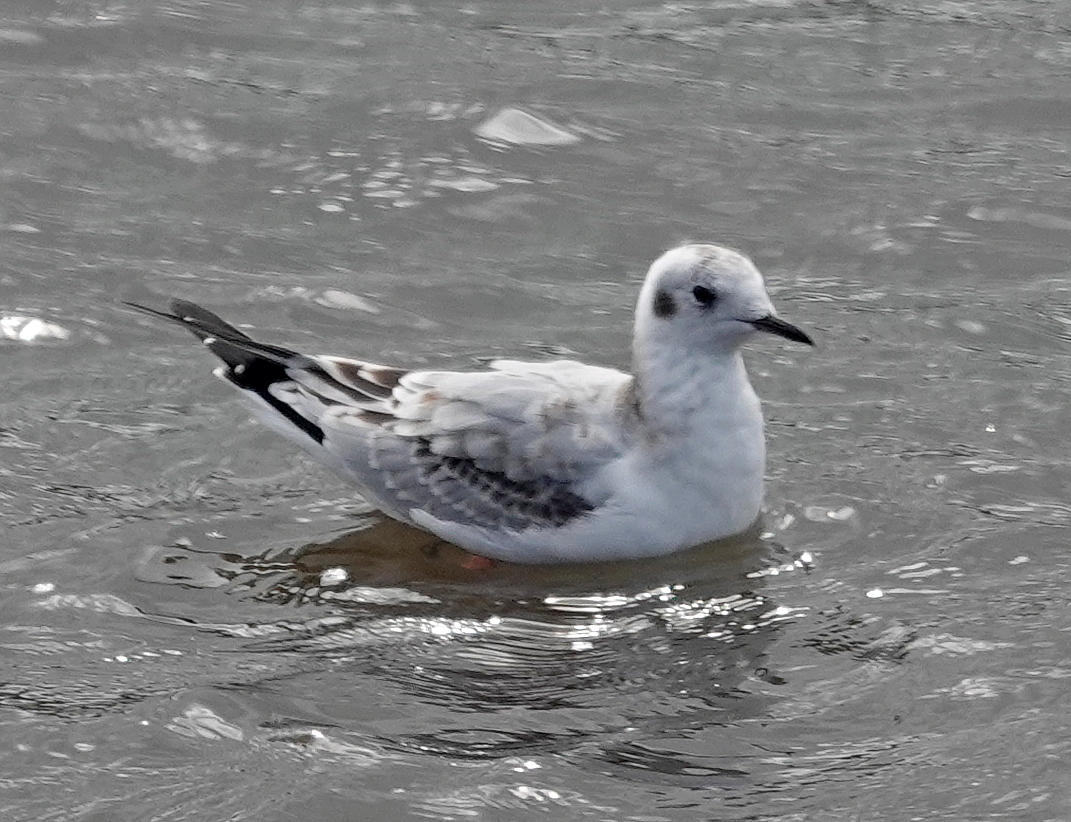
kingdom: Animalia
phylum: Chordata
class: Aves
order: Charadriiformes
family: Laridae
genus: Chroicocephalus
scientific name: Chroicocephalus philadelphia
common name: Bonaparte's gull
